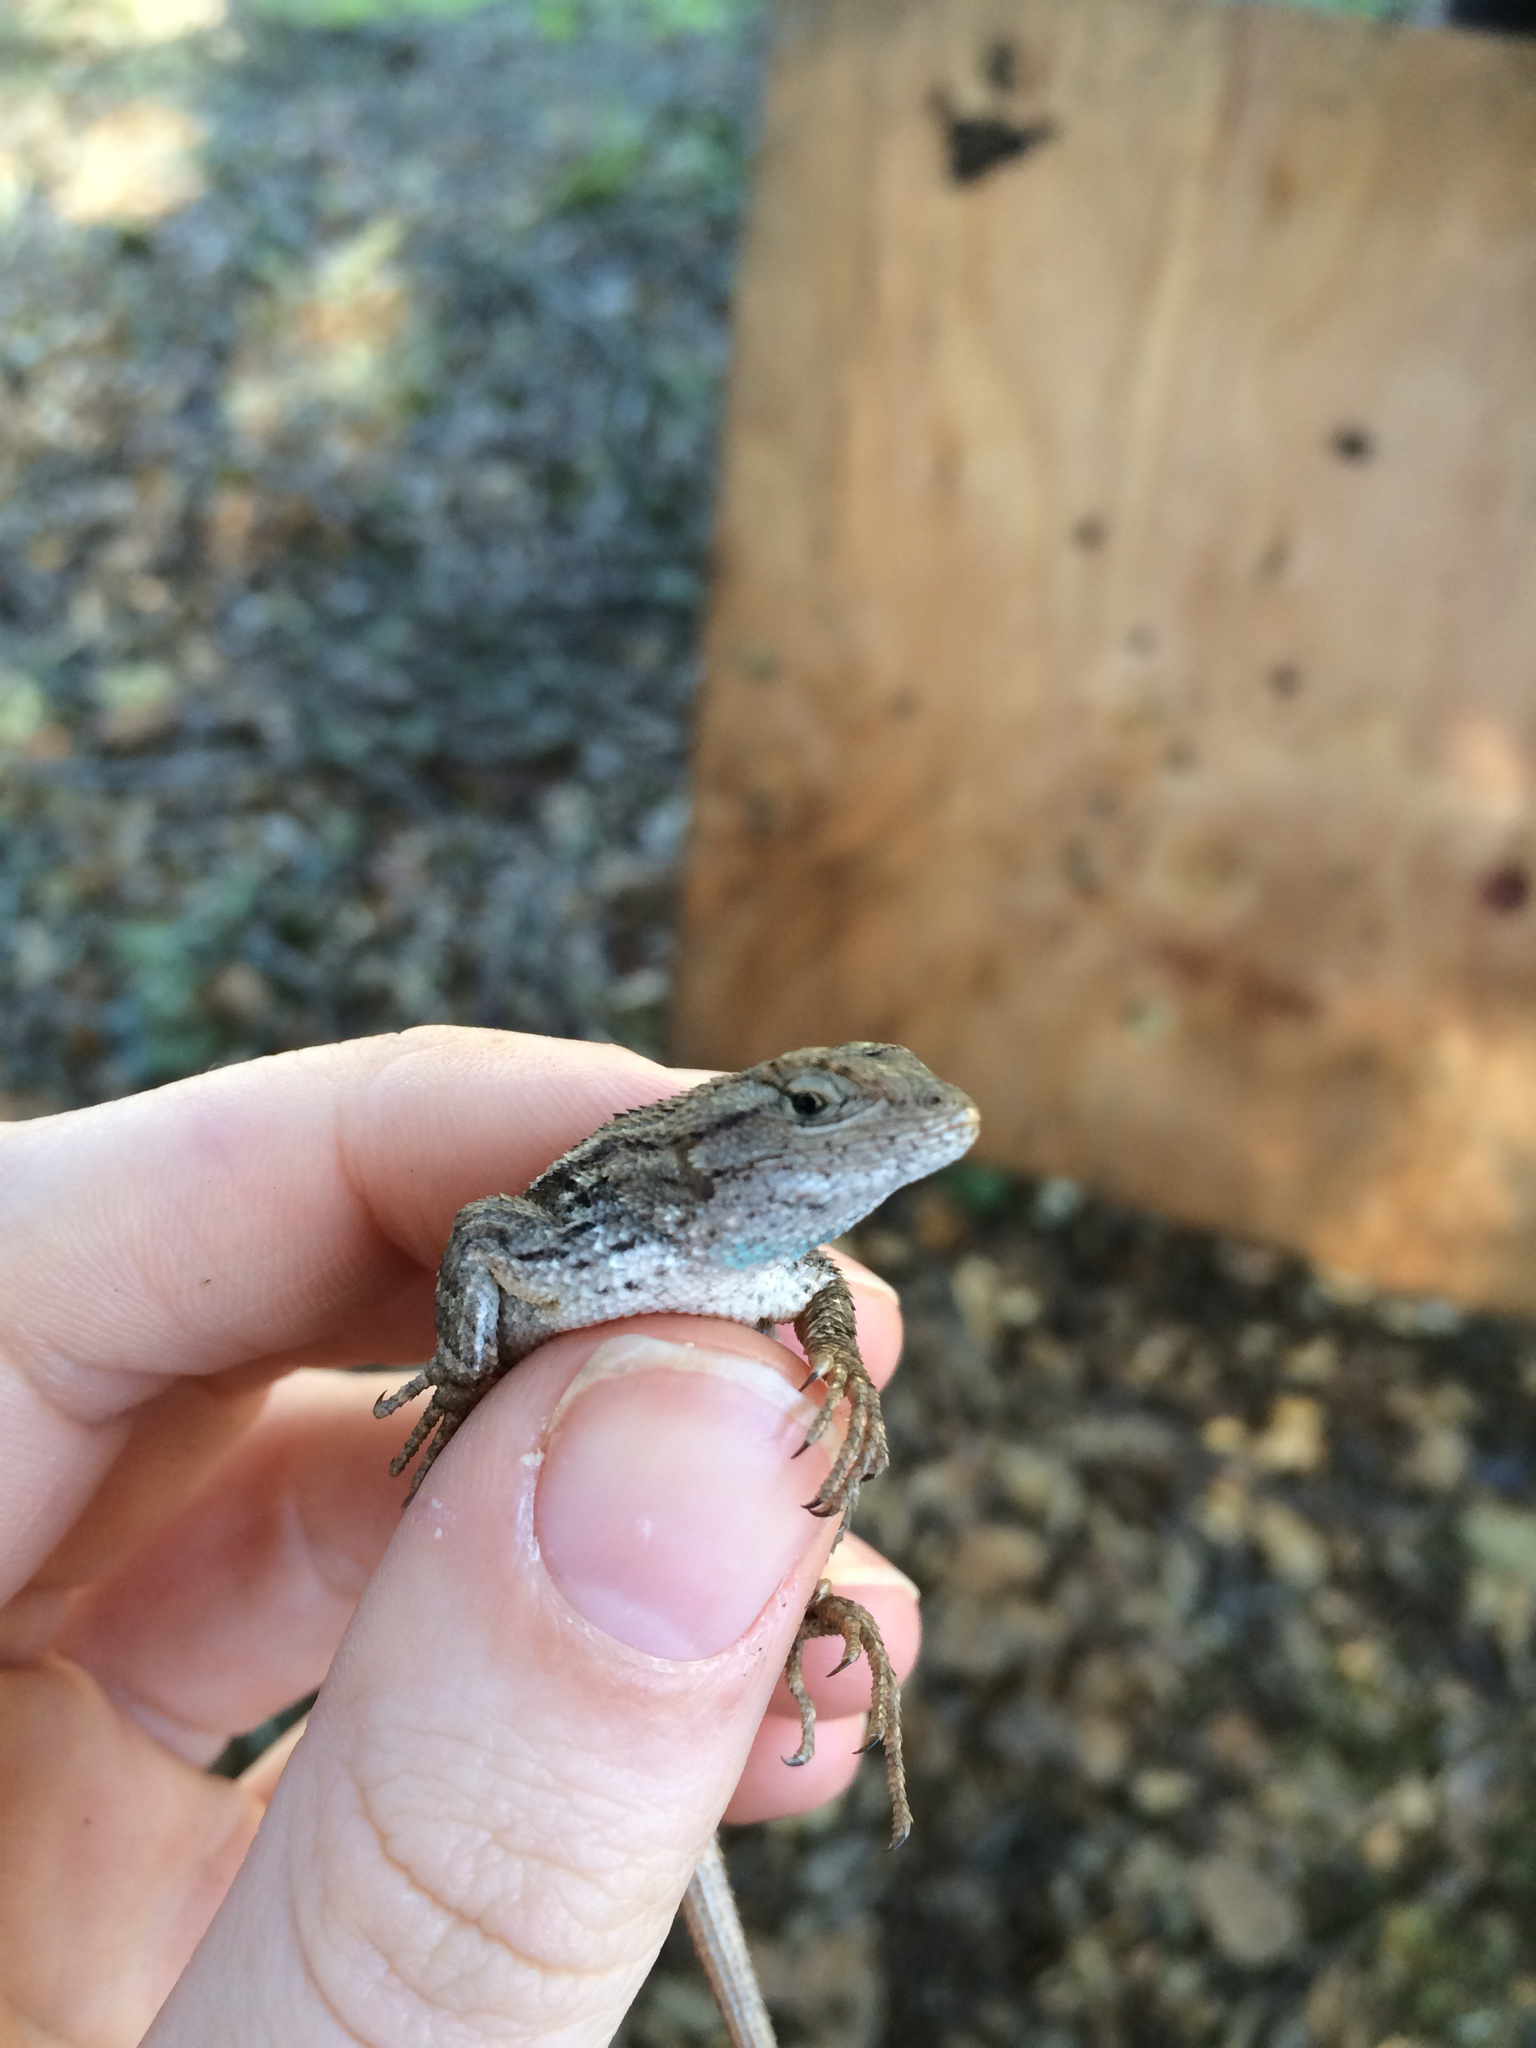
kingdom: Animalia
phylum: Chordata
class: Squamata
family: Phrynosomatidae
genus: Sceloporus
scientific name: Sceloporus occidentalis
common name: Western fence lizard
